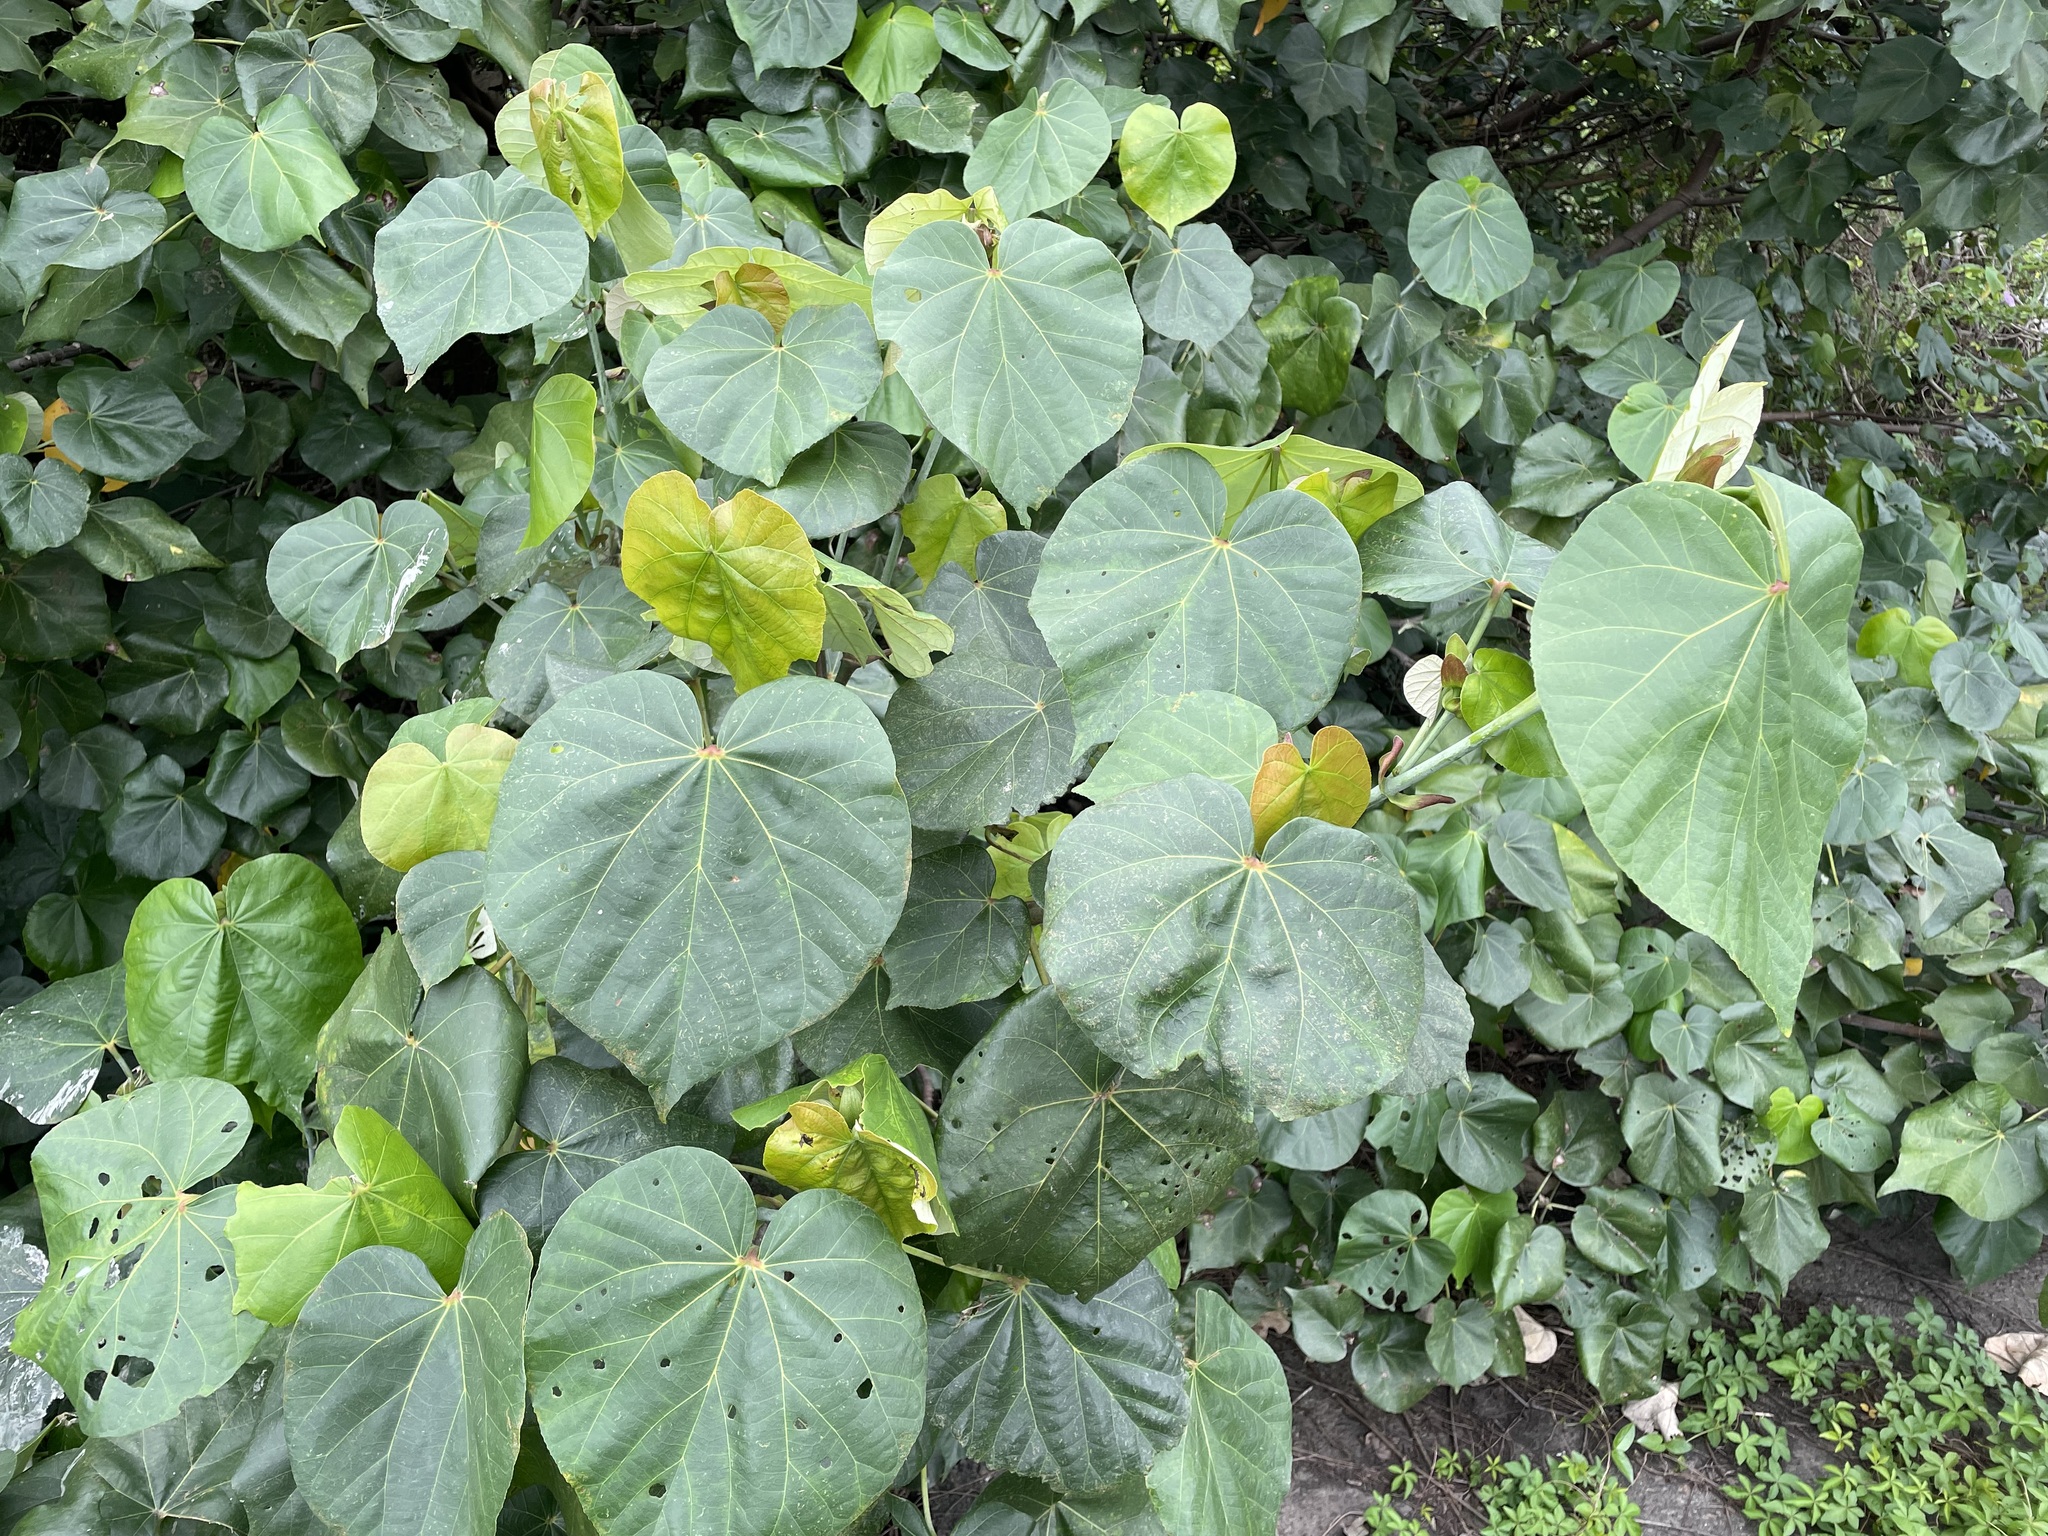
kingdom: Plantae
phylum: Tracheophyta
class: Magnoliopsida
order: Malvales
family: Malvaceae
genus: Talipariti
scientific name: Talipariti tiliaceum
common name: Sea hibiscus
